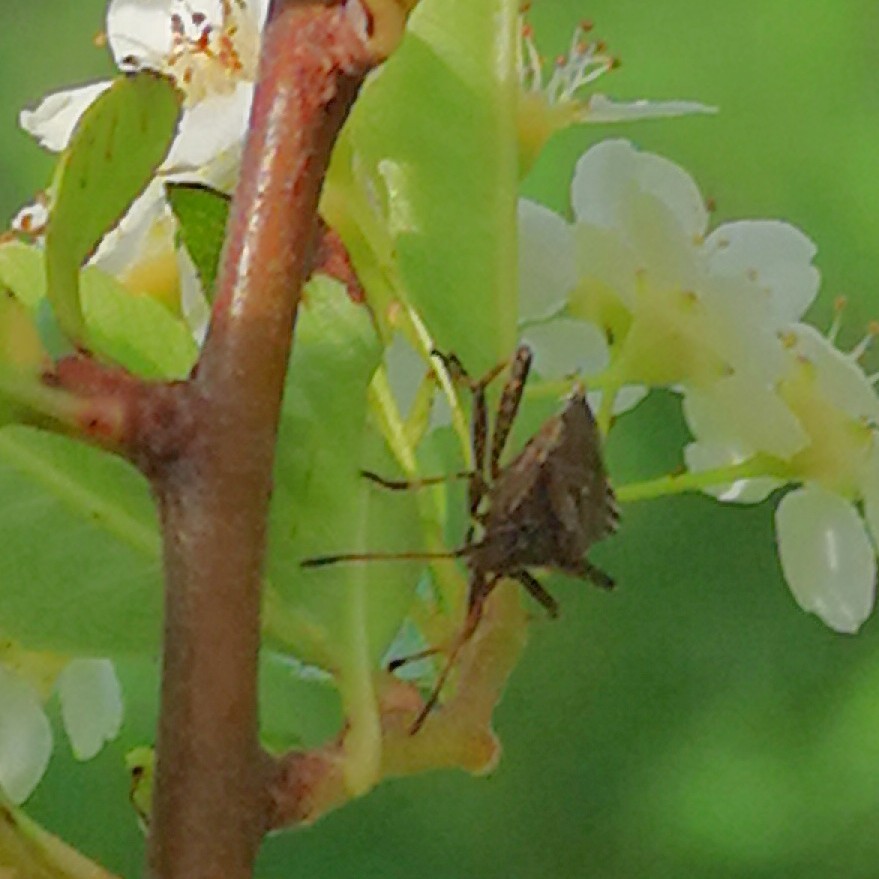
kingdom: Animalia
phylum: Arthropoda
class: Insecta
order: Hemiptera
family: Coreidae
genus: Ceraleptus
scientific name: Ceraleptus gracilicornis
